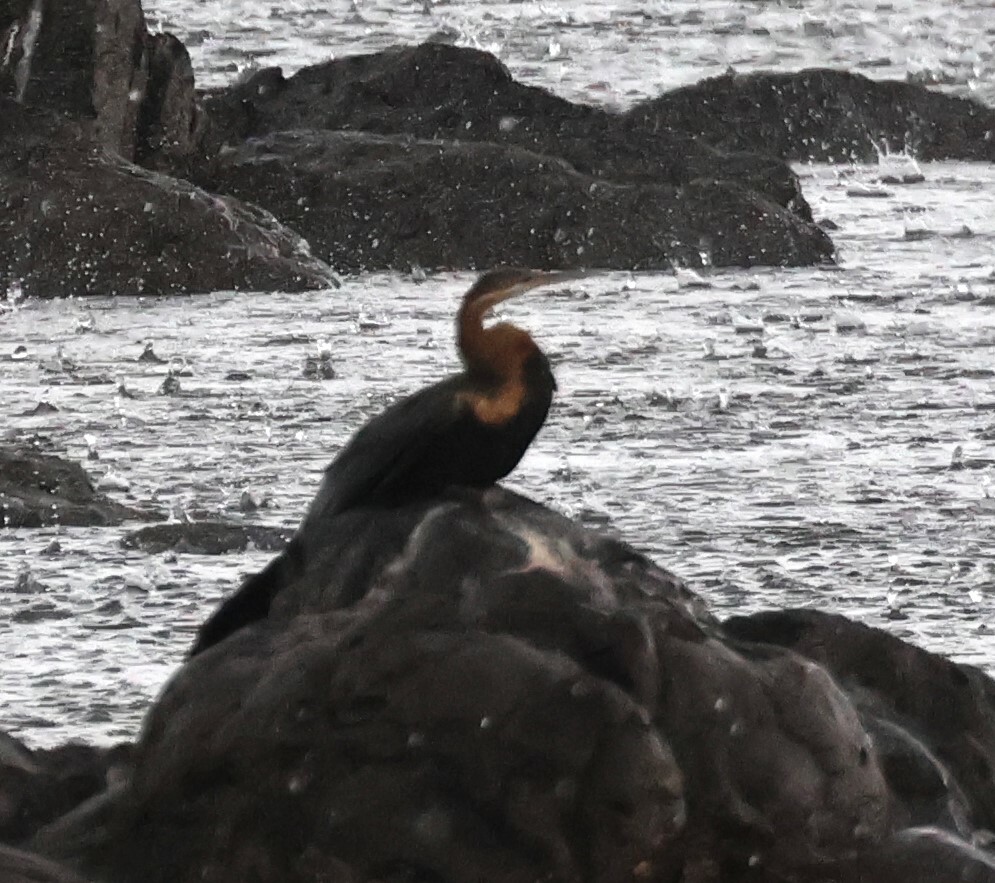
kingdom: Animalia
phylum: Chordata
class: Aves
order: Suliformes
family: Anhingidae
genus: Anhinga
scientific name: Anhinga rufa
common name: African darter
